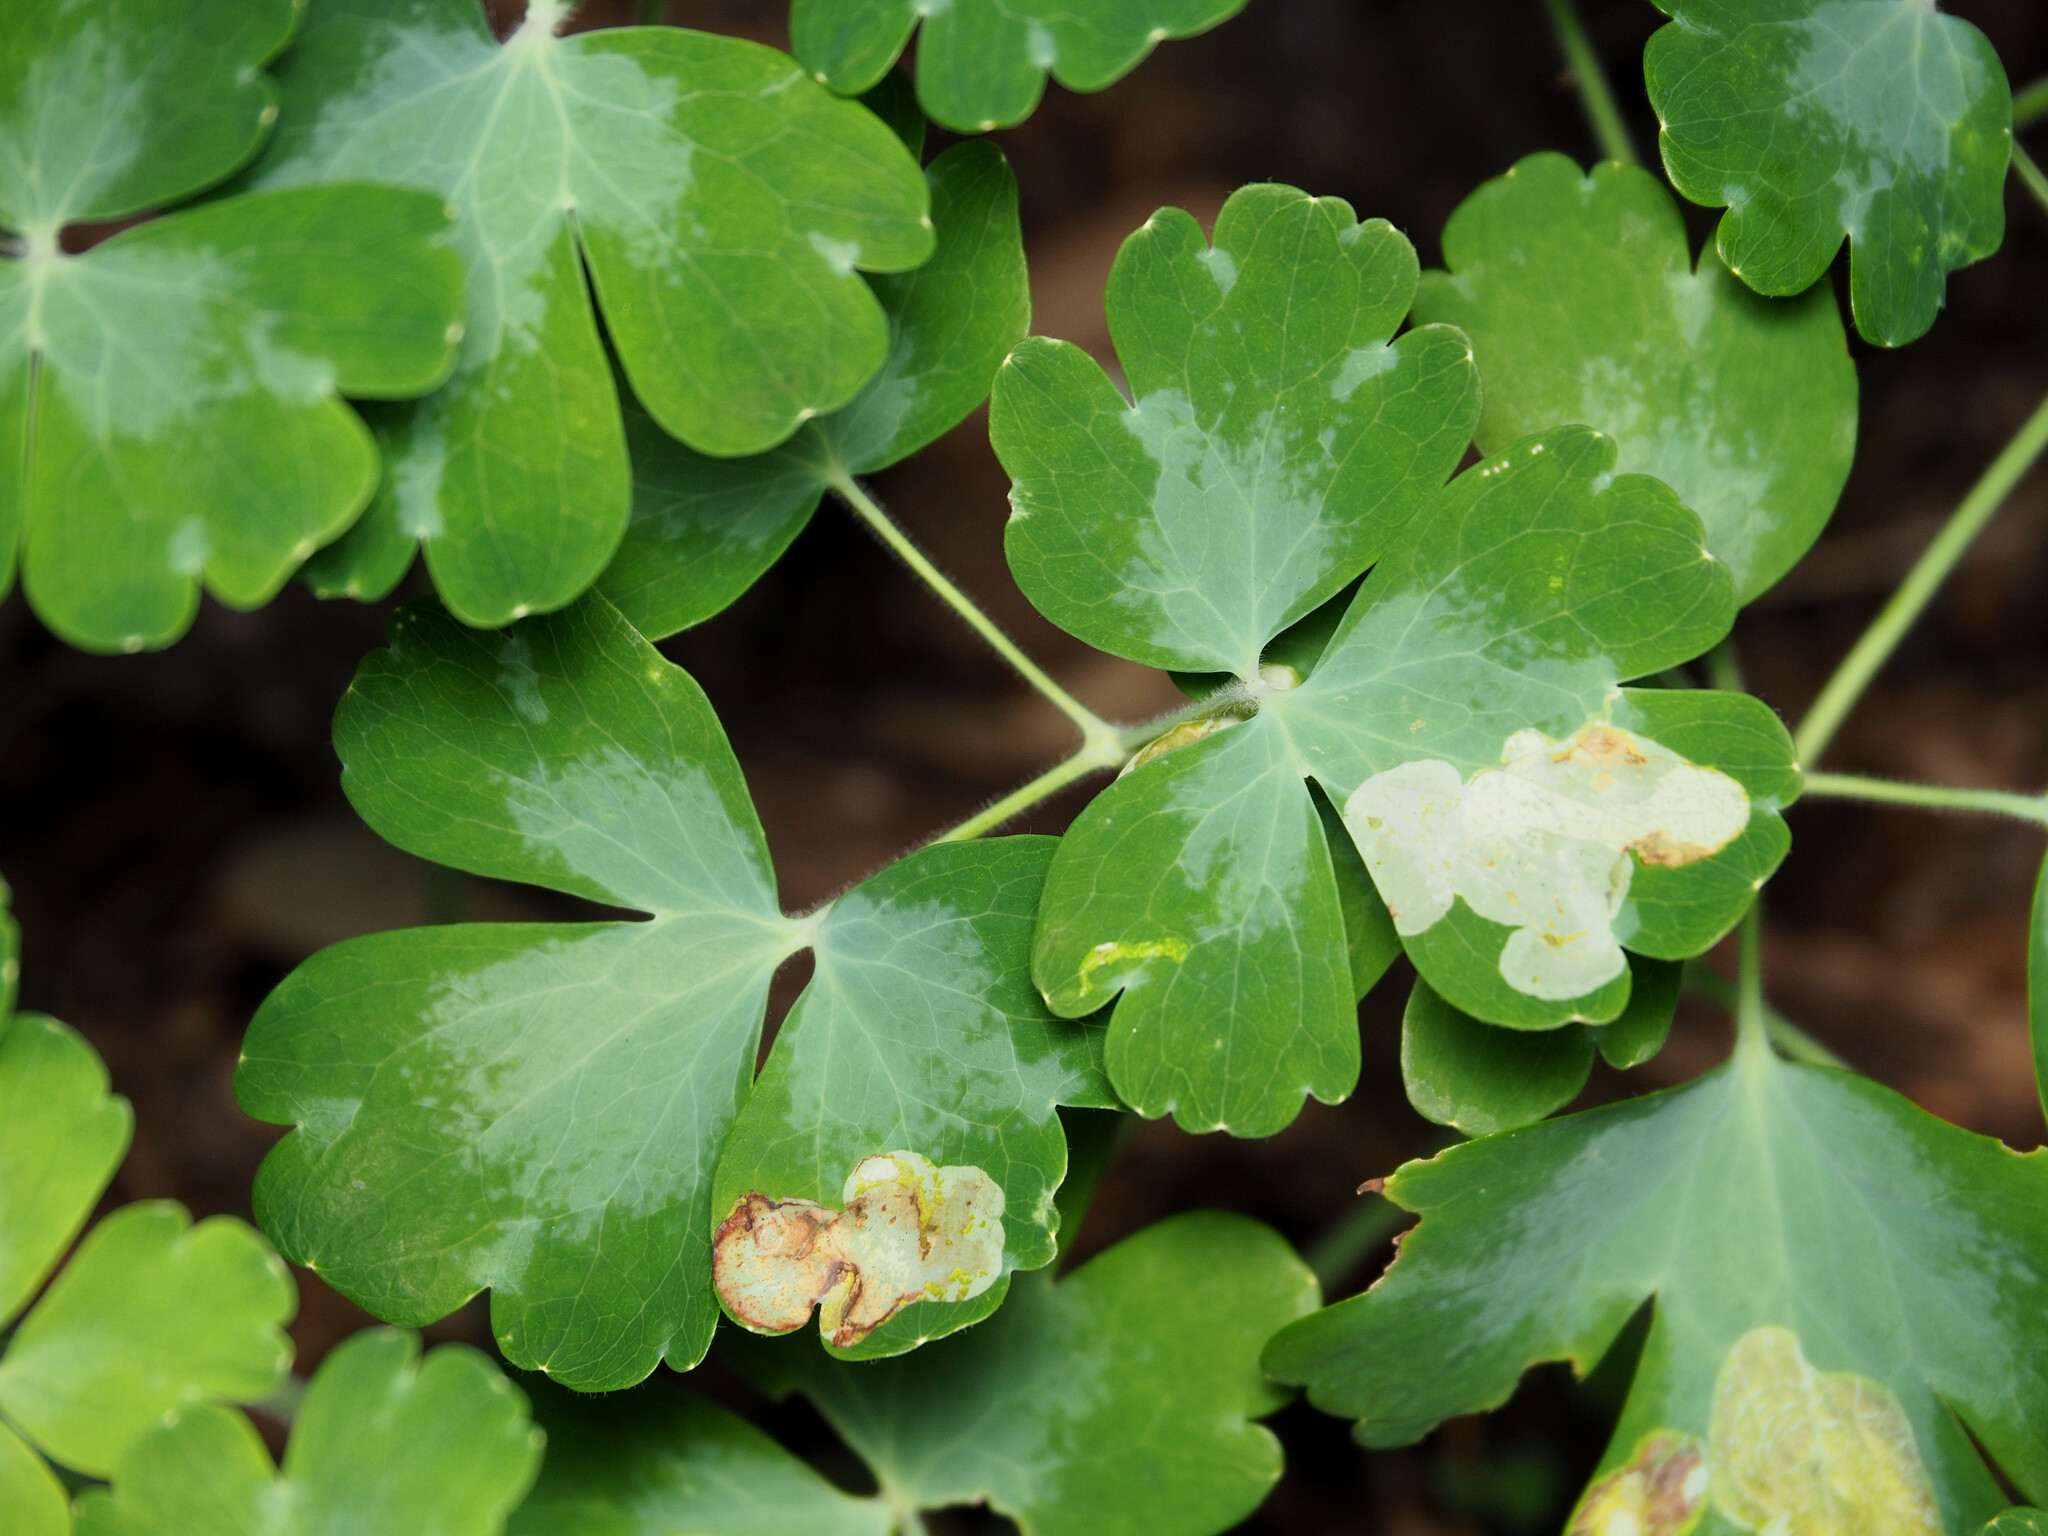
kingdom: Animalia
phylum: Arthropoda
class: Insecta
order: Diptera
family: Agromyzidae
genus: Phytomyza
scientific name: Phytomyza aquilegiana
